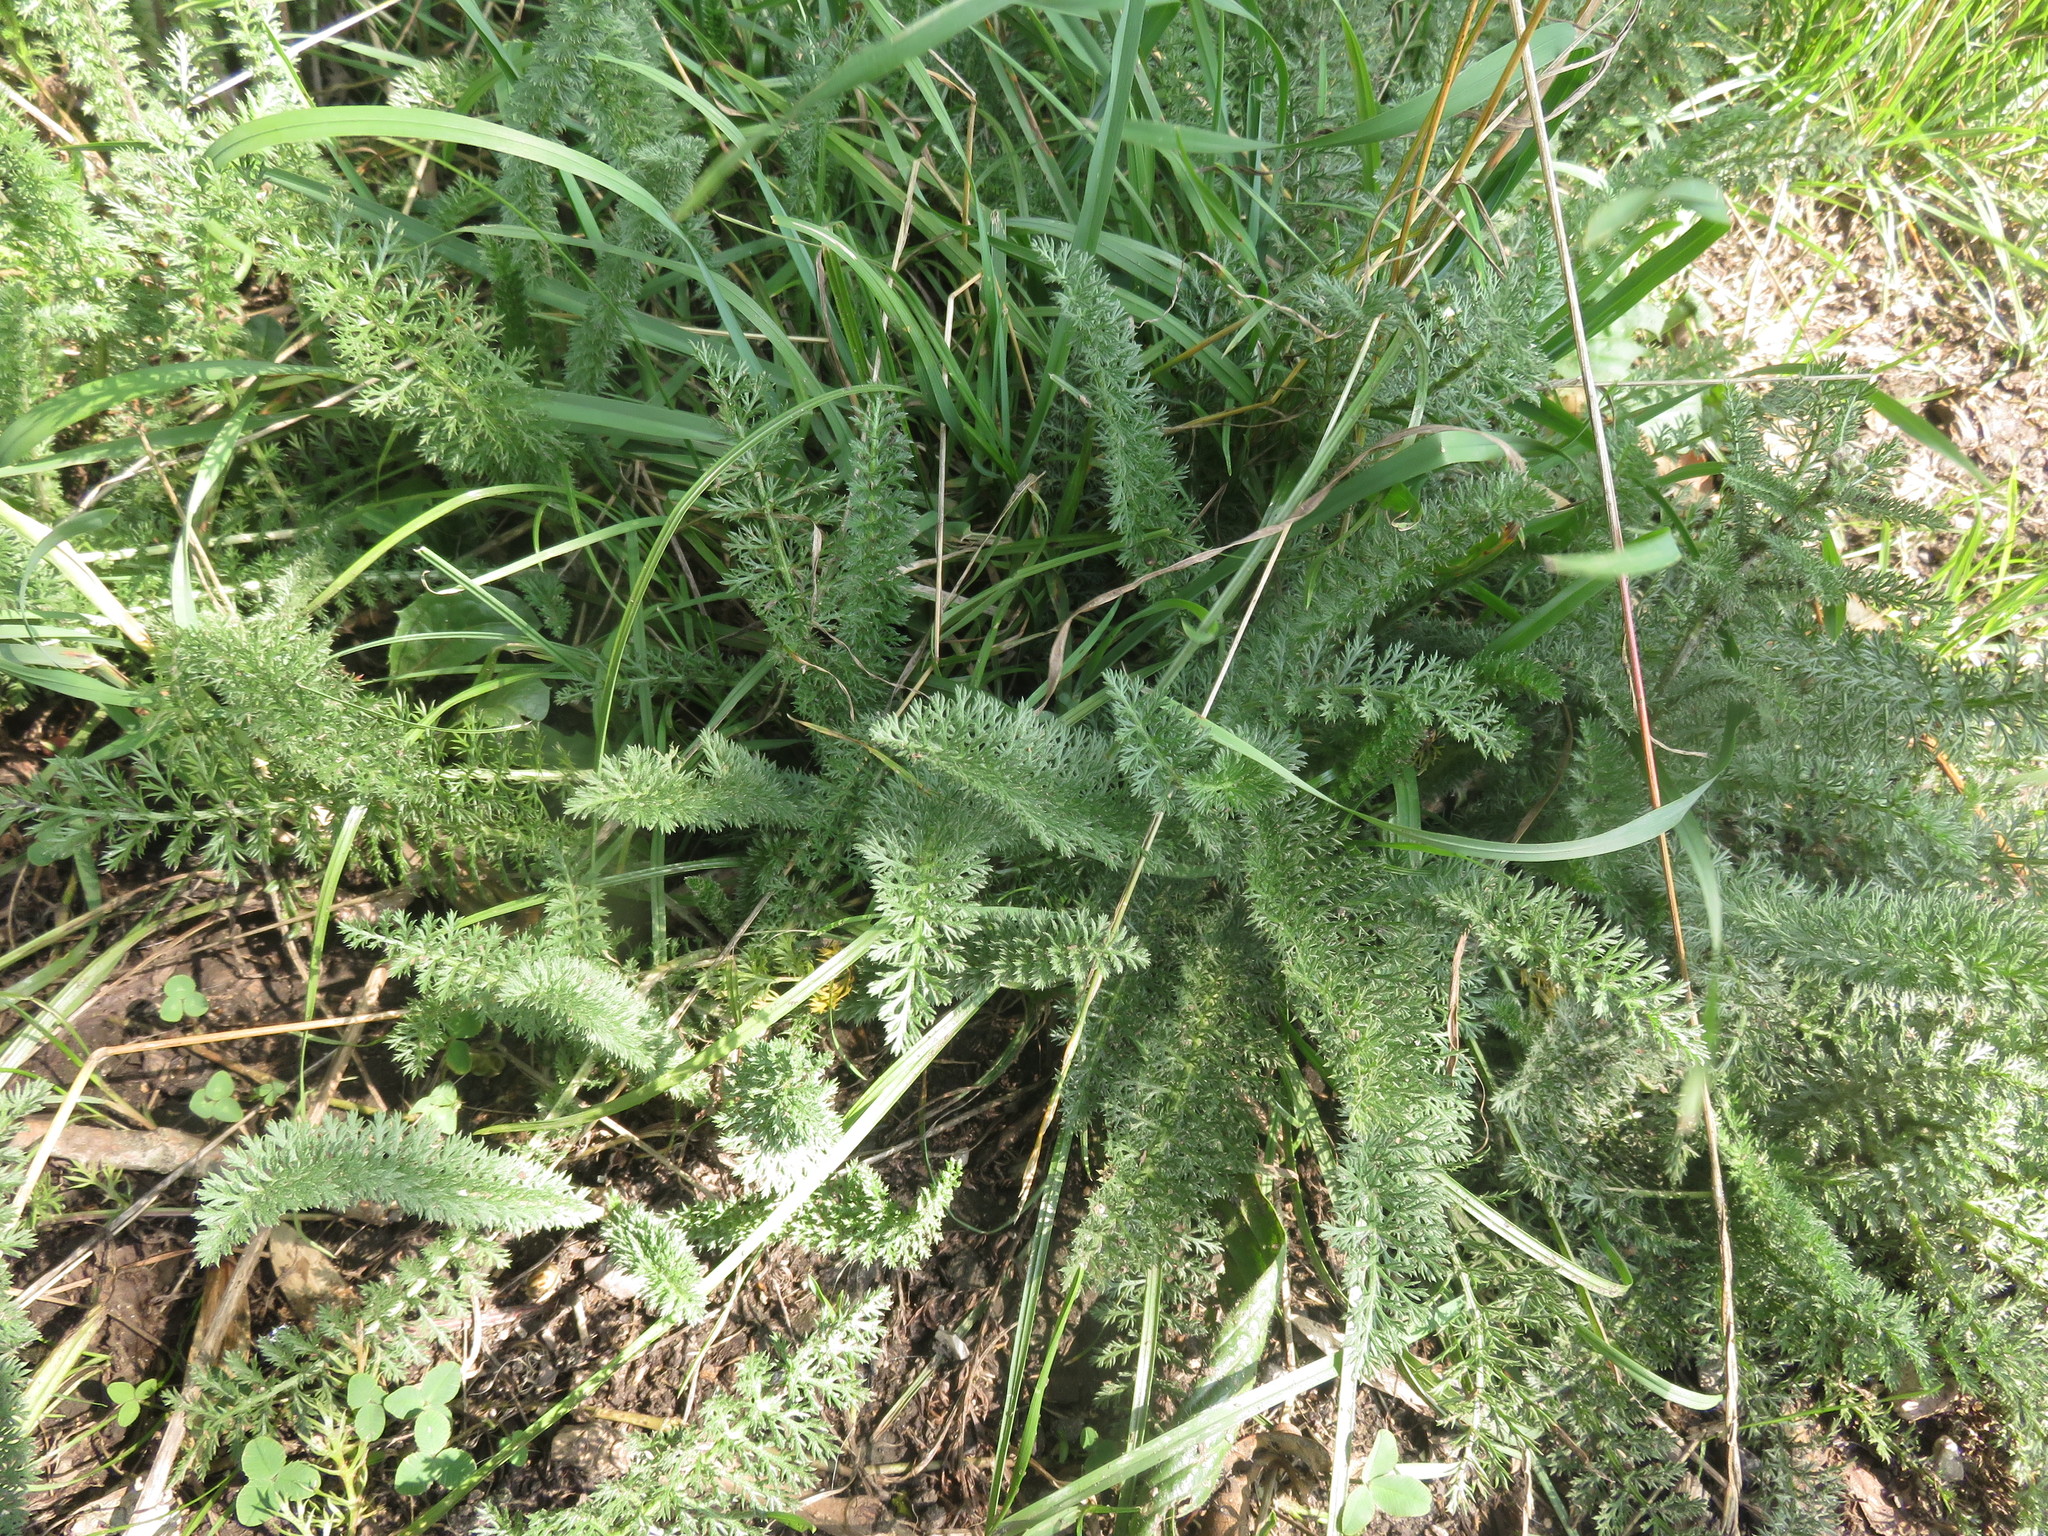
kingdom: Plantae
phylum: Tracheophyta
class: Magnoliopsida
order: Asterales
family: Asteraceae
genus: Achillea
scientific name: Achillea millefolium
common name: Yarrow
